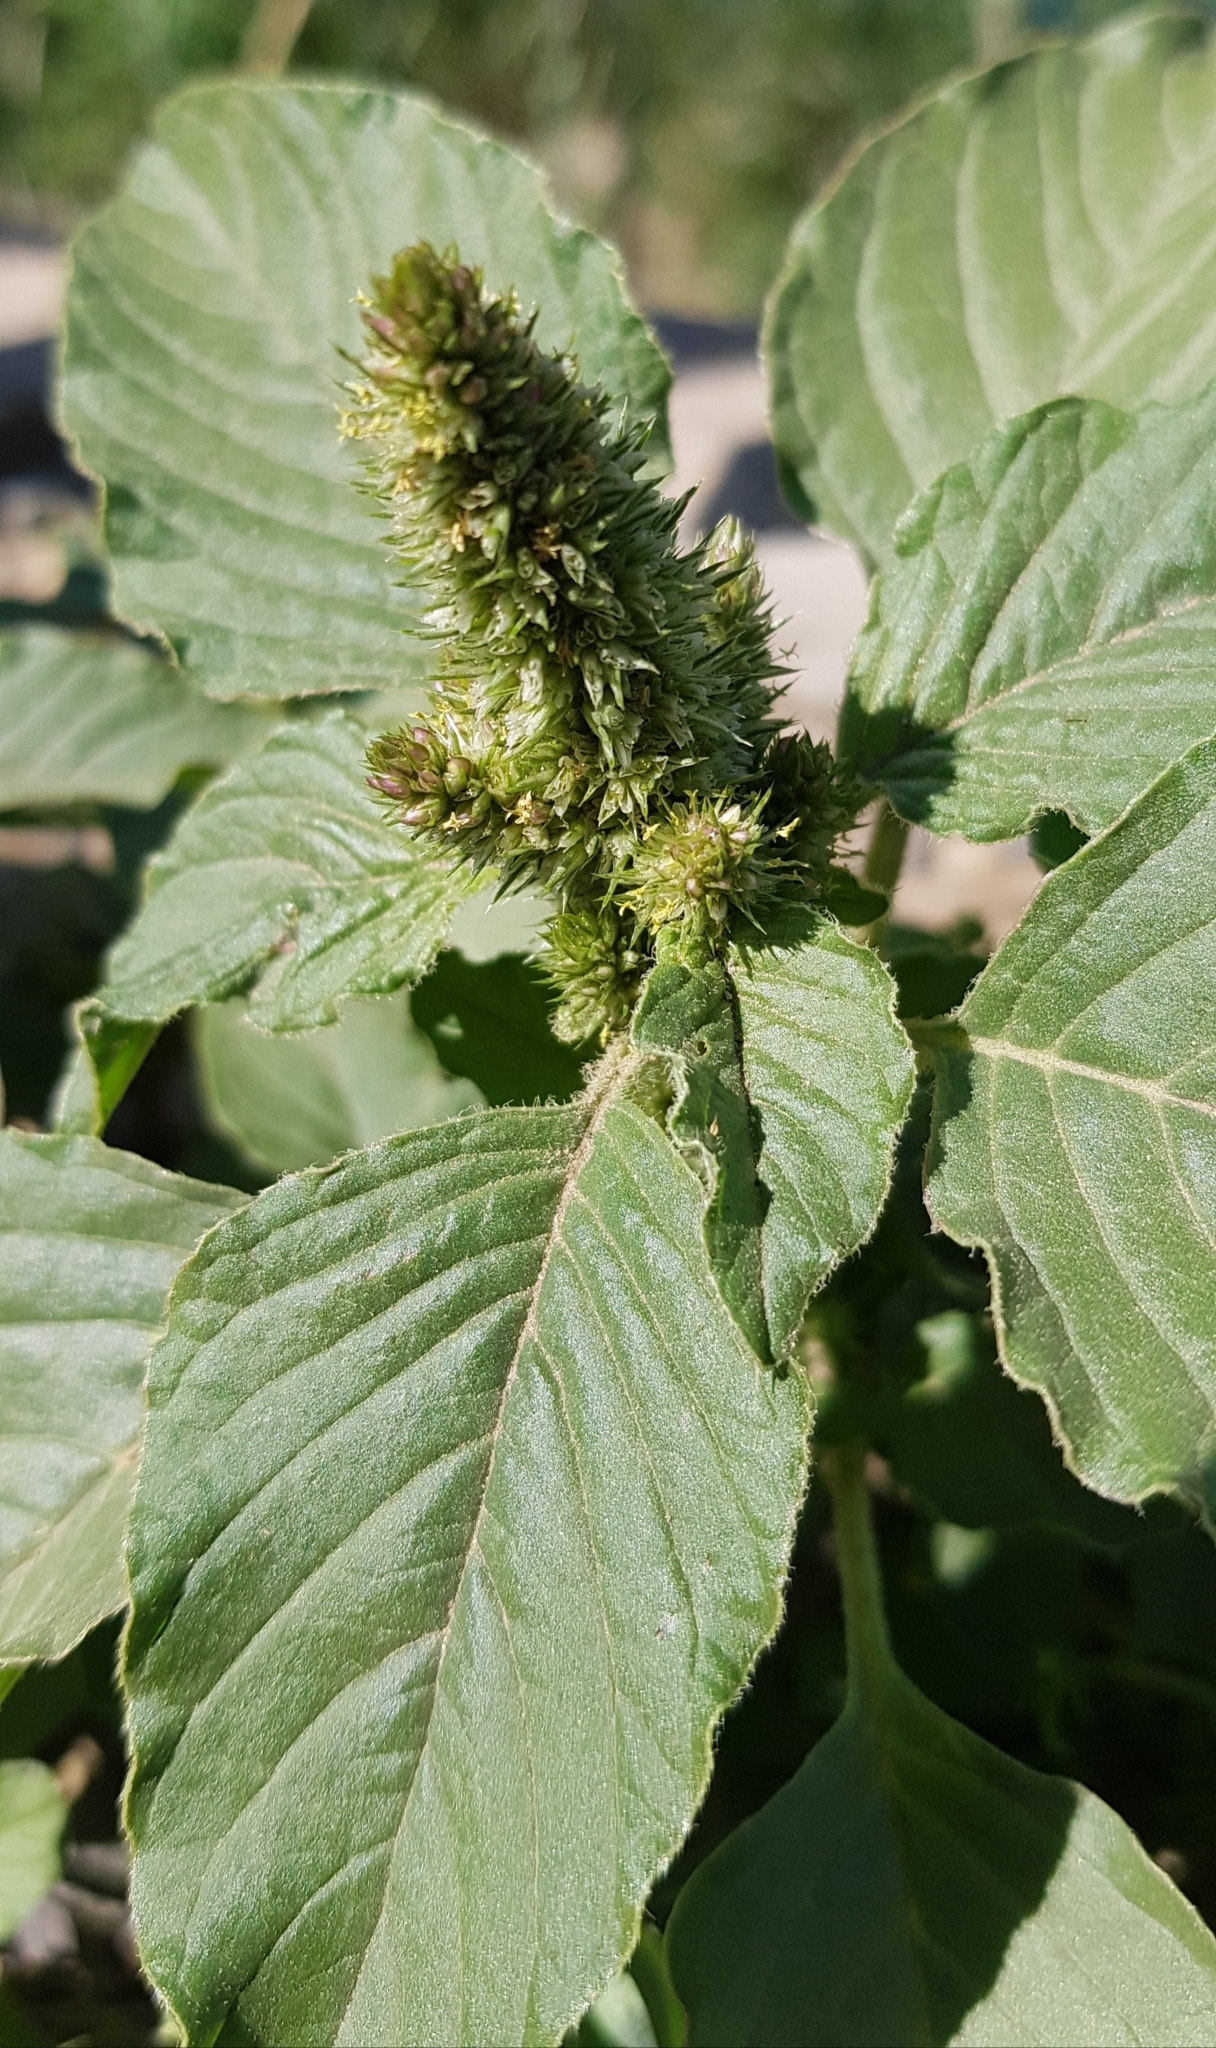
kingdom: Plantae
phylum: Tracheophyta
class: Magnoliopsida
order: Caryophyllales
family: Amaranthaceae
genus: Amaranthus
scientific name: Amaranthus retroflexus
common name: Redroot amaranth
